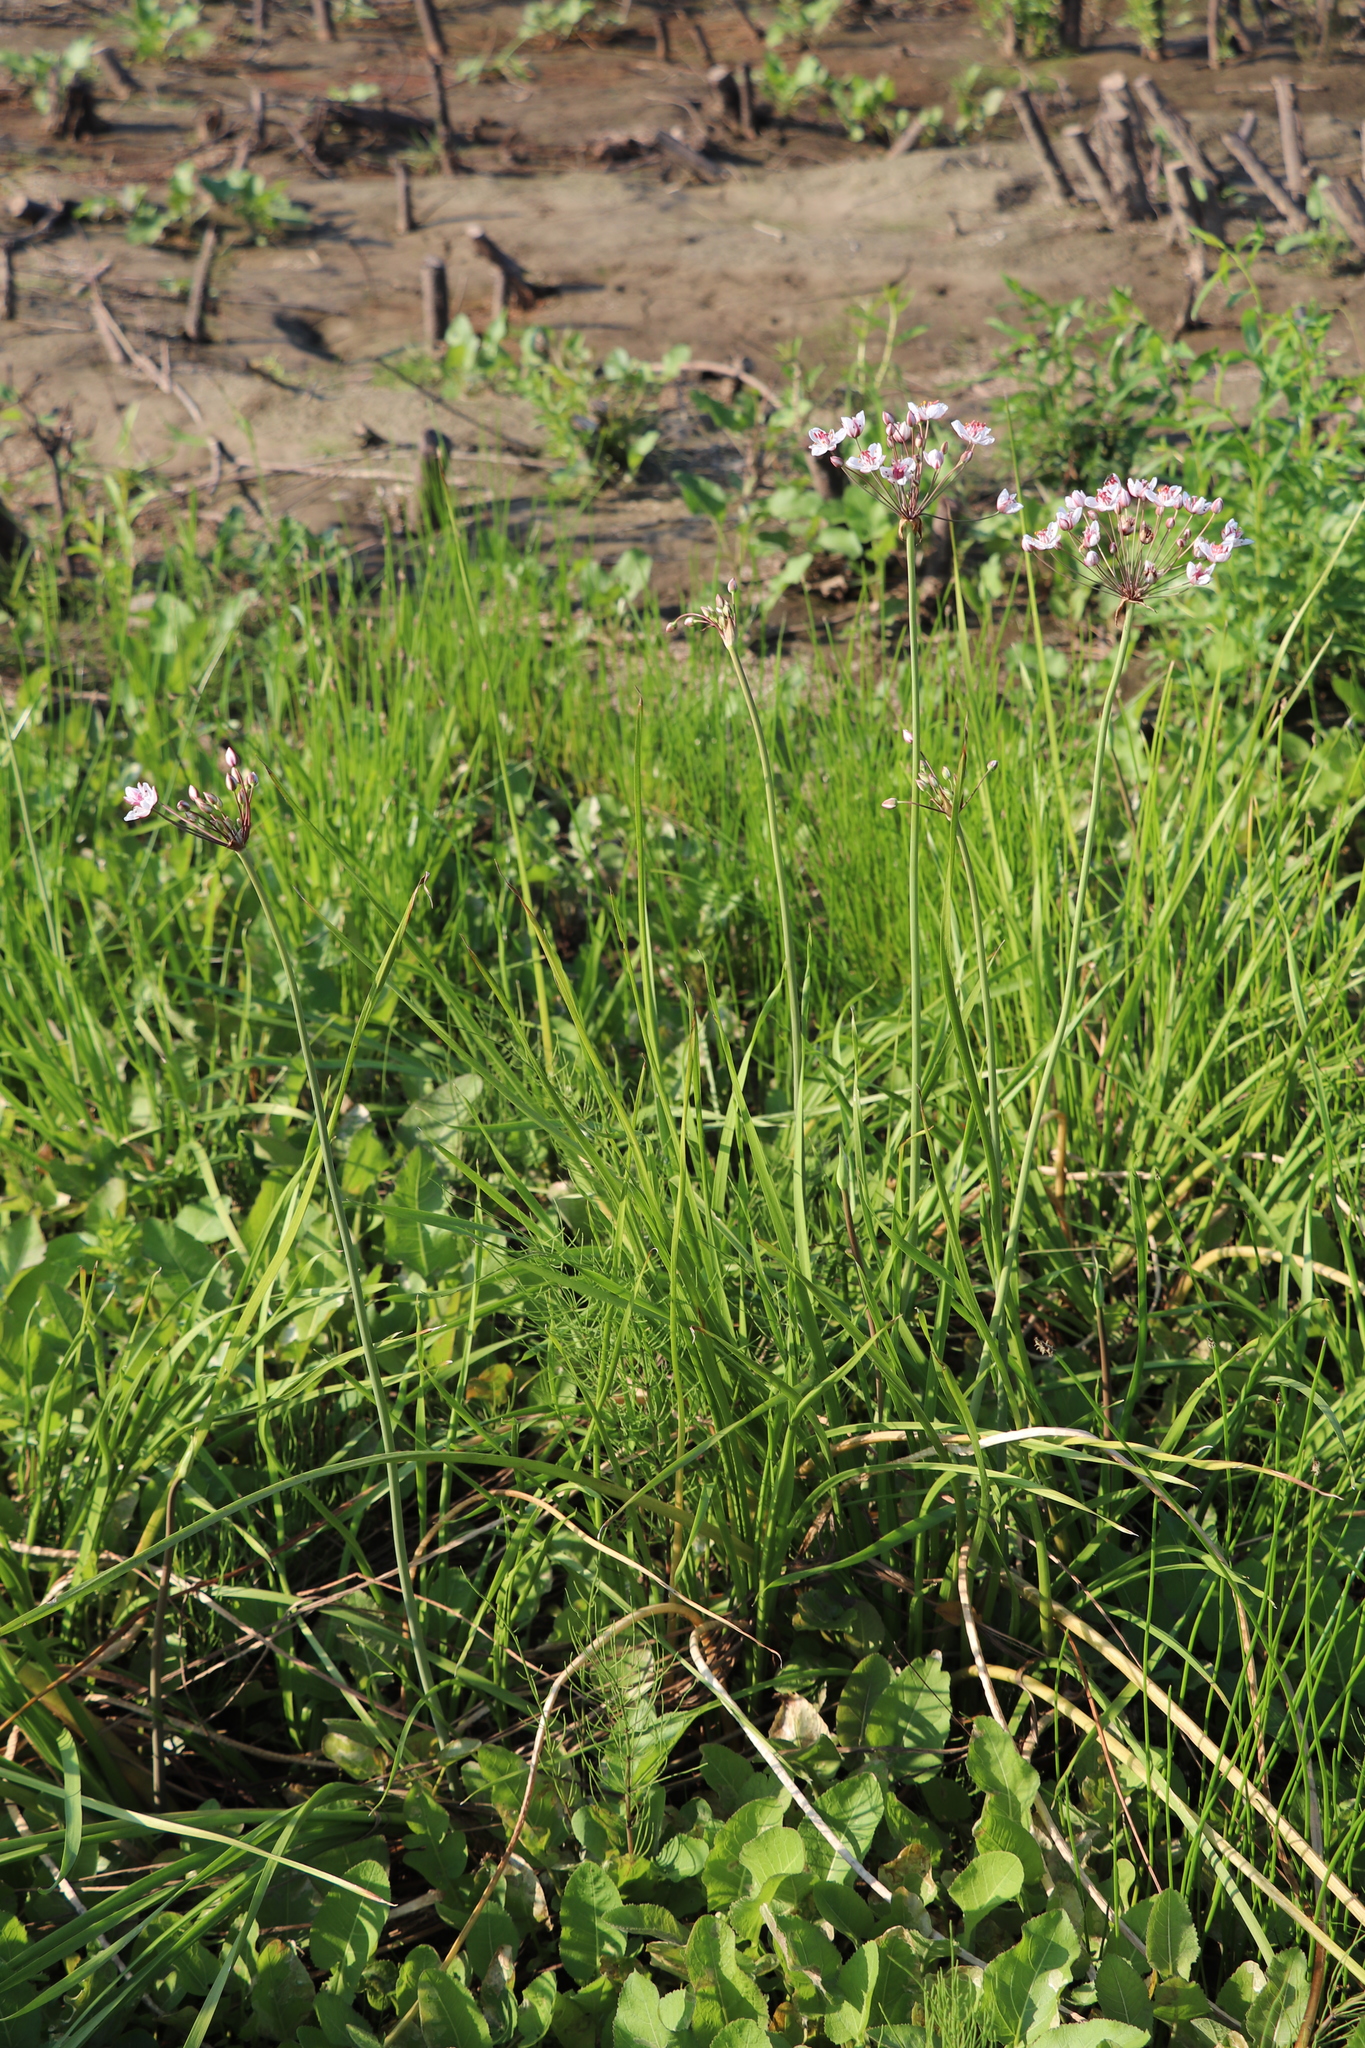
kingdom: Plantae
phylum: Tracheophyta
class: Liliopsida
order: Alismatales
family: Butomaceae
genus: Butomus
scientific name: Butomus umbellatus
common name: Flowering-rush
